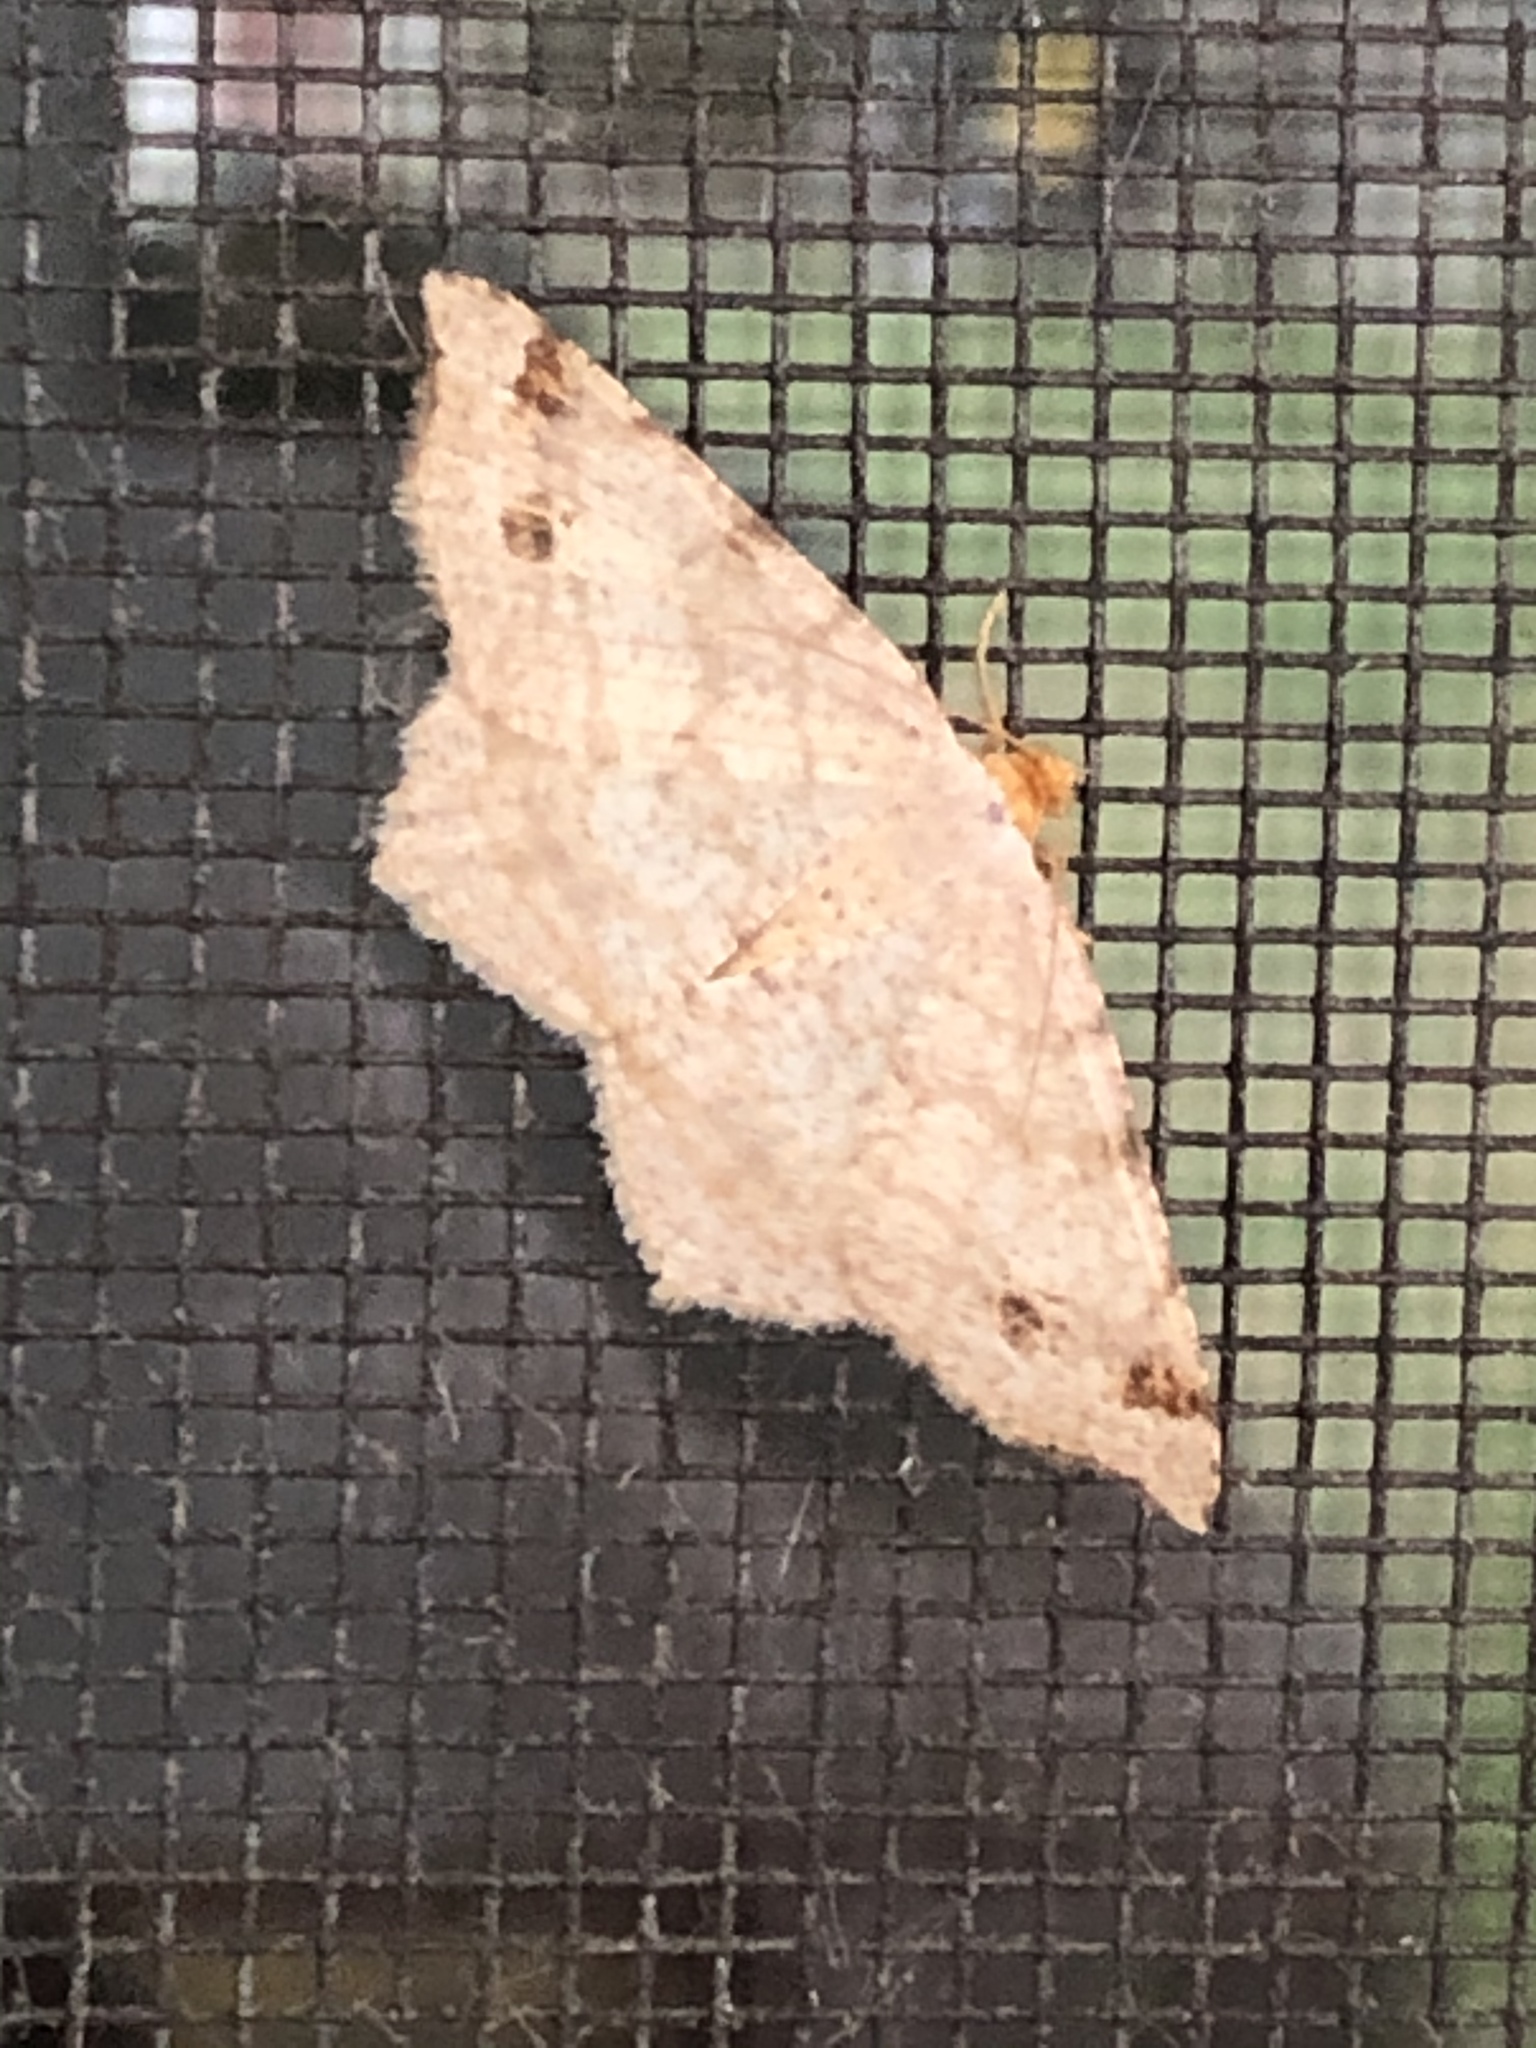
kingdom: Animalia
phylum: Arthropoda
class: Insecta
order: Lepidoptera
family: Geometridae
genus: Macaria
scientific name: Macaria bisignata
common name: Red-headed inchworm
